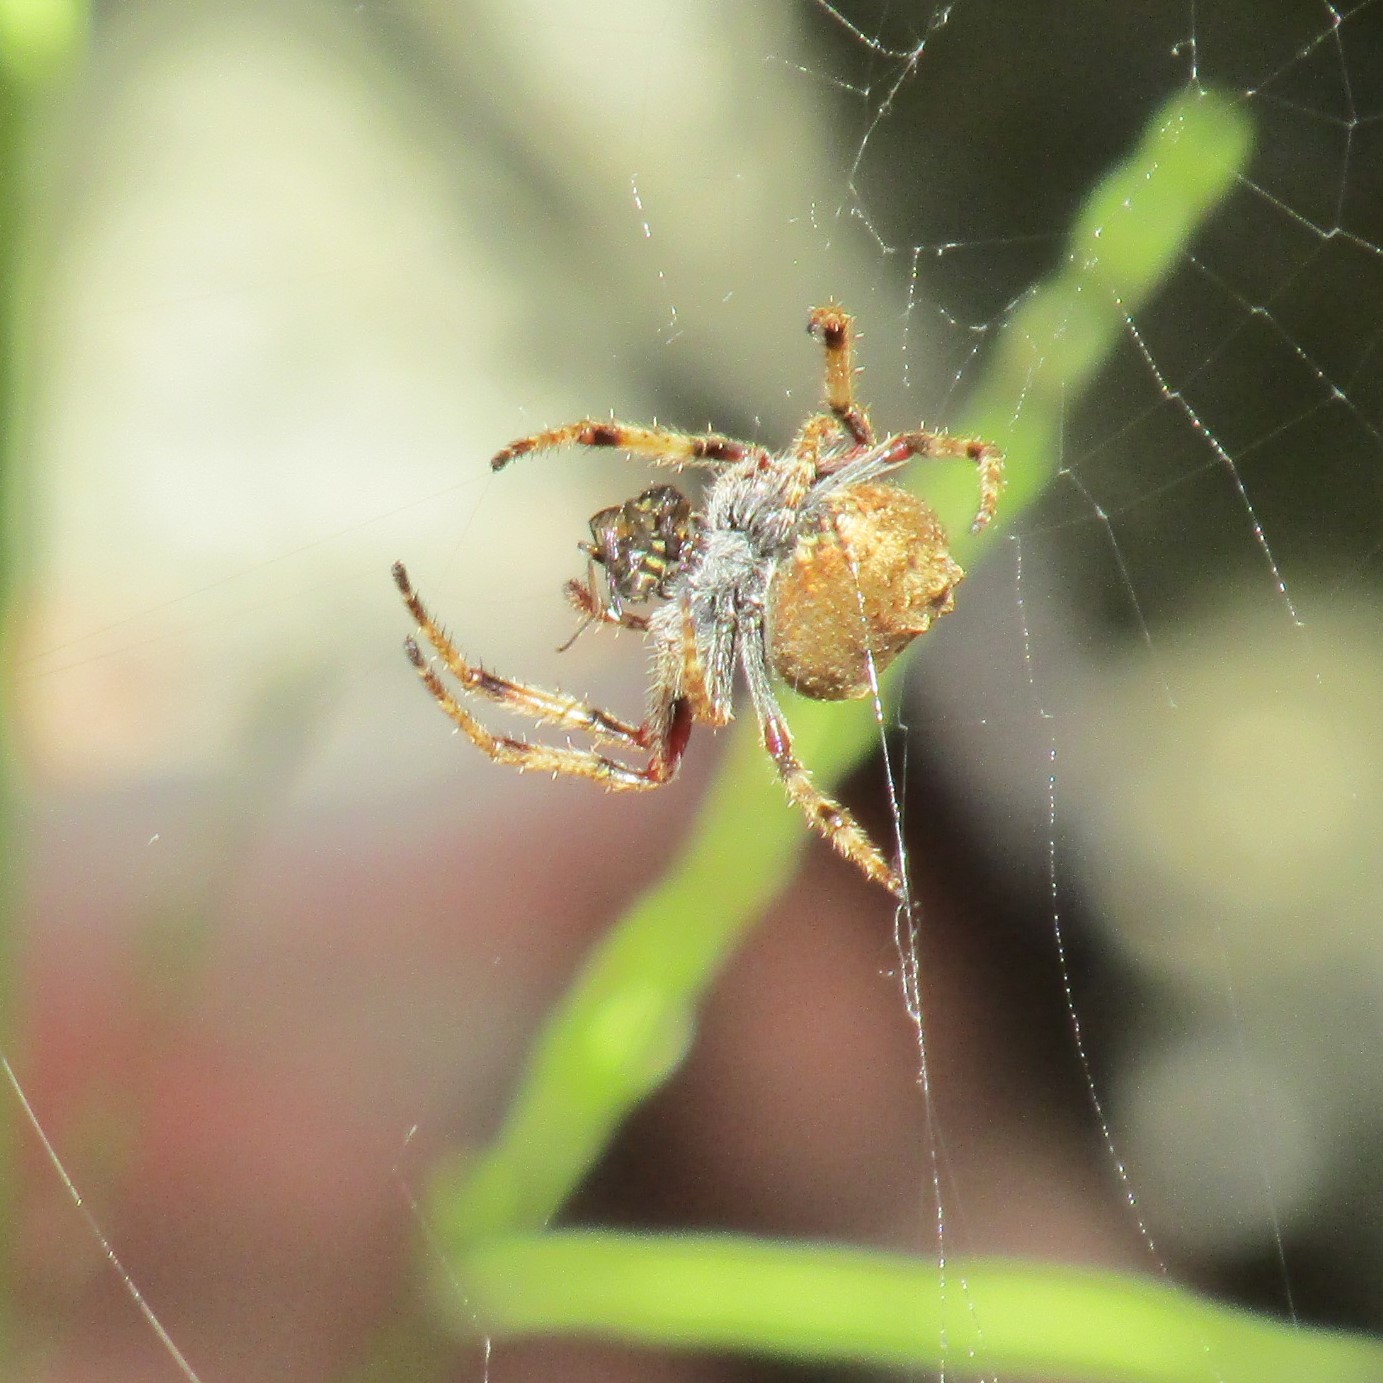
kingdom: Animalia
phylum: Arthropoda
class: Arachnida
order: Araneae
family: Araneidae
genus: Eriophora
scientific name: Eriophora pustulosa
